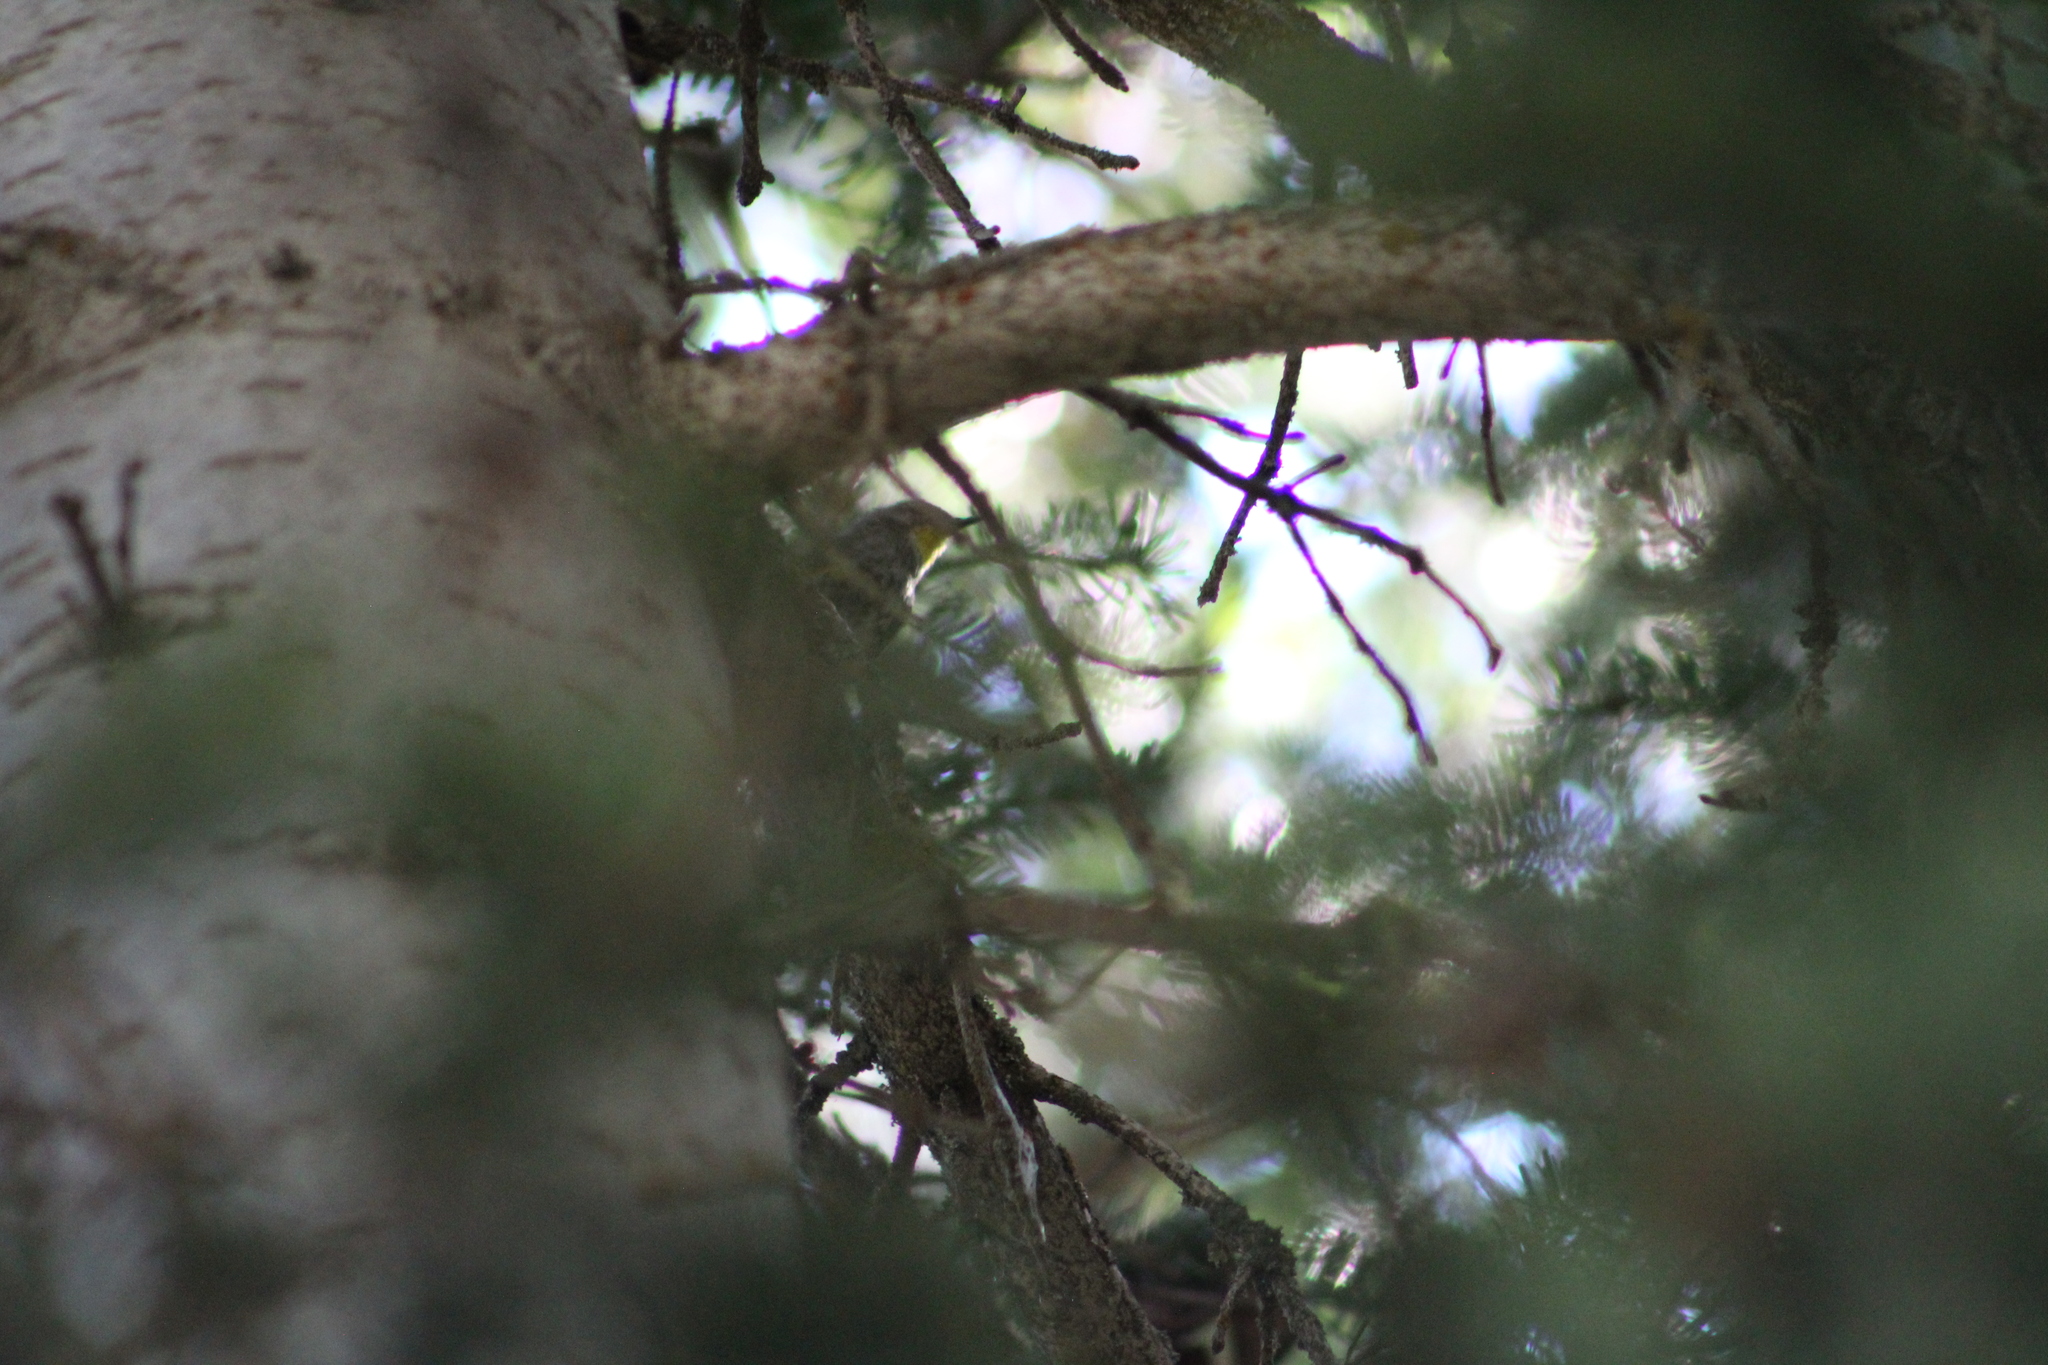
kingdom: Animalia
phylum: Chordata
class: Aves
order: Passeriformes
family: Parulidae
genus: Setophaga
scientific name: Setophaga coronata
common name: Myrtle warbler
